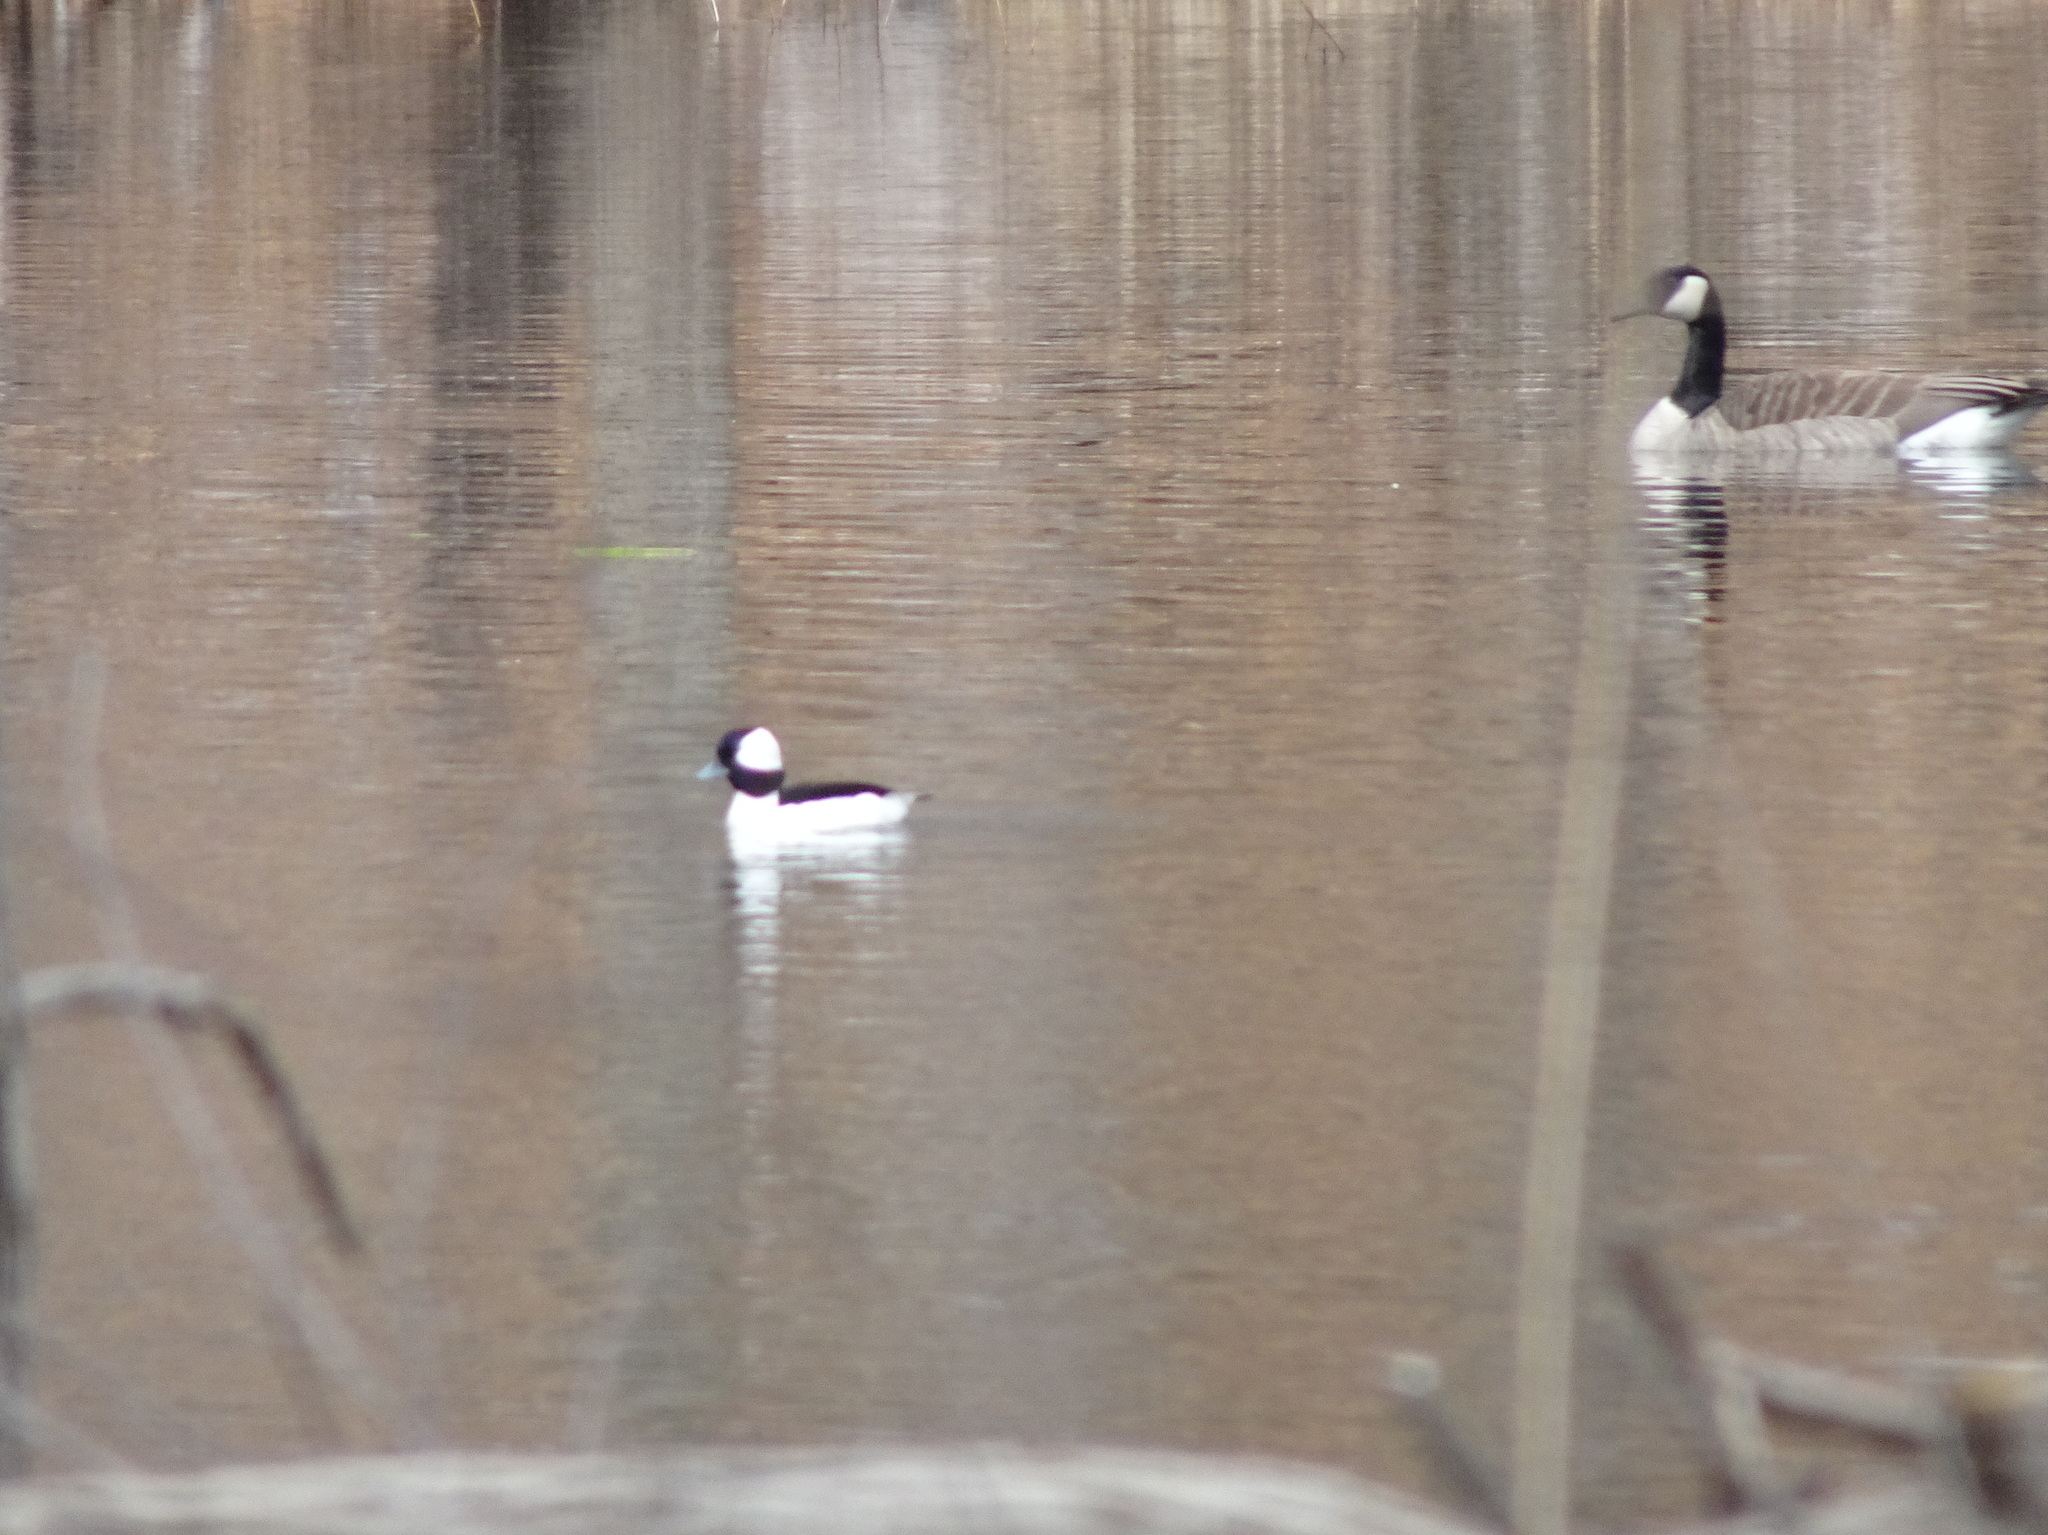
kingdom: Animalia
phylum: Chordata
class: Aves
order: Anseriformes
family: Anatidae
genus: Bucephala
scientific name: Bucephala albeola
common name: Bufflehead
